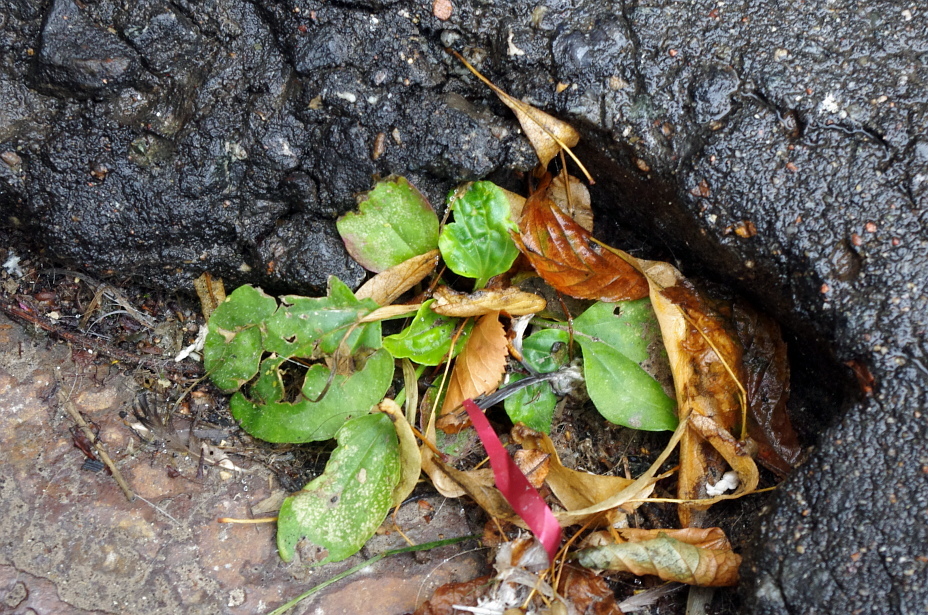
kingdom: Plantae
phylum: Tracheophyta
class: Magnoliopsida
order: Lamiales
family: Plantaginaceae
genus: Plantago
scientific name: Plantago major
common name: Common plantain
